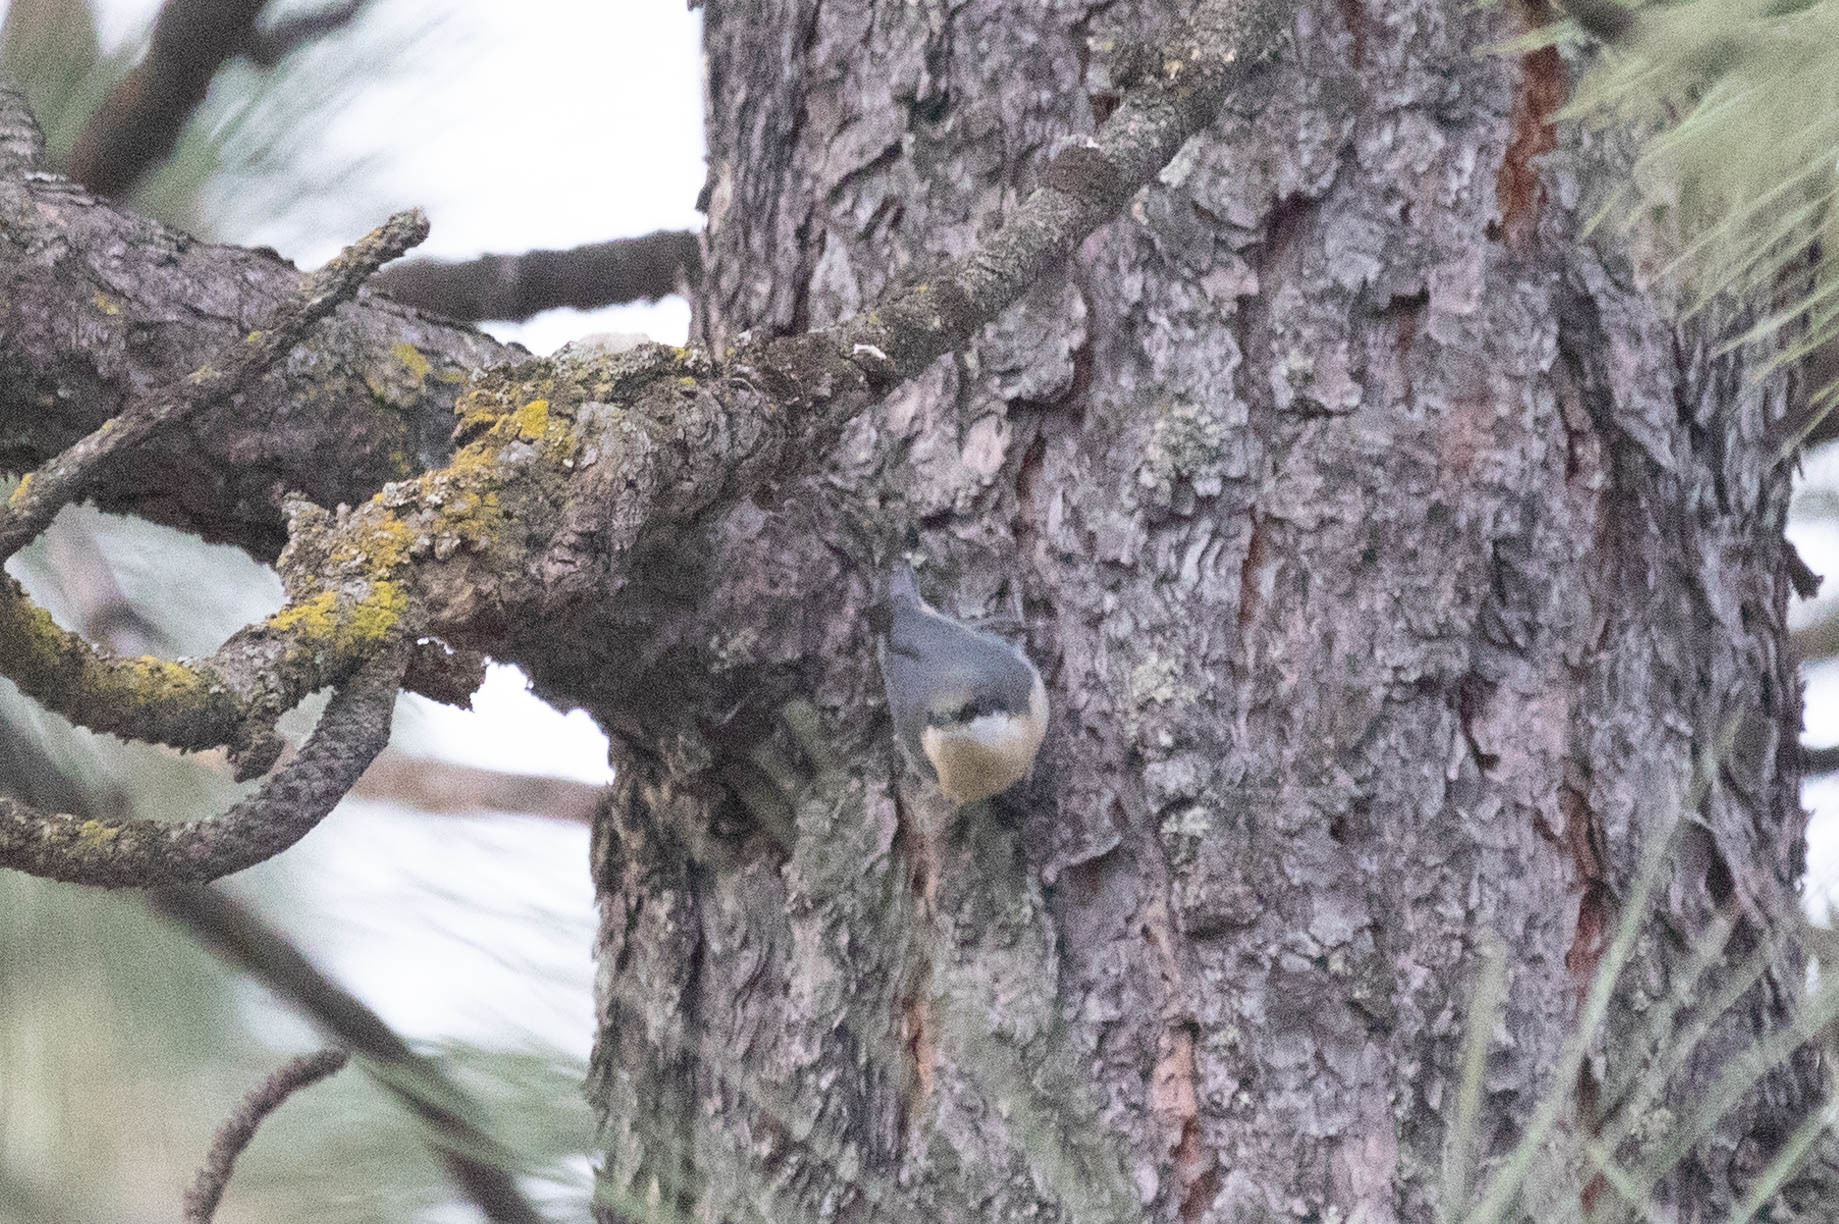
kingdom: Animalia
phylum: Chordata
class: Aves
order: Passeriformes
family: Sittidae
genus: Sitta
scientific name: Sitta pygmaea
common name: Pygmy nuthatch
